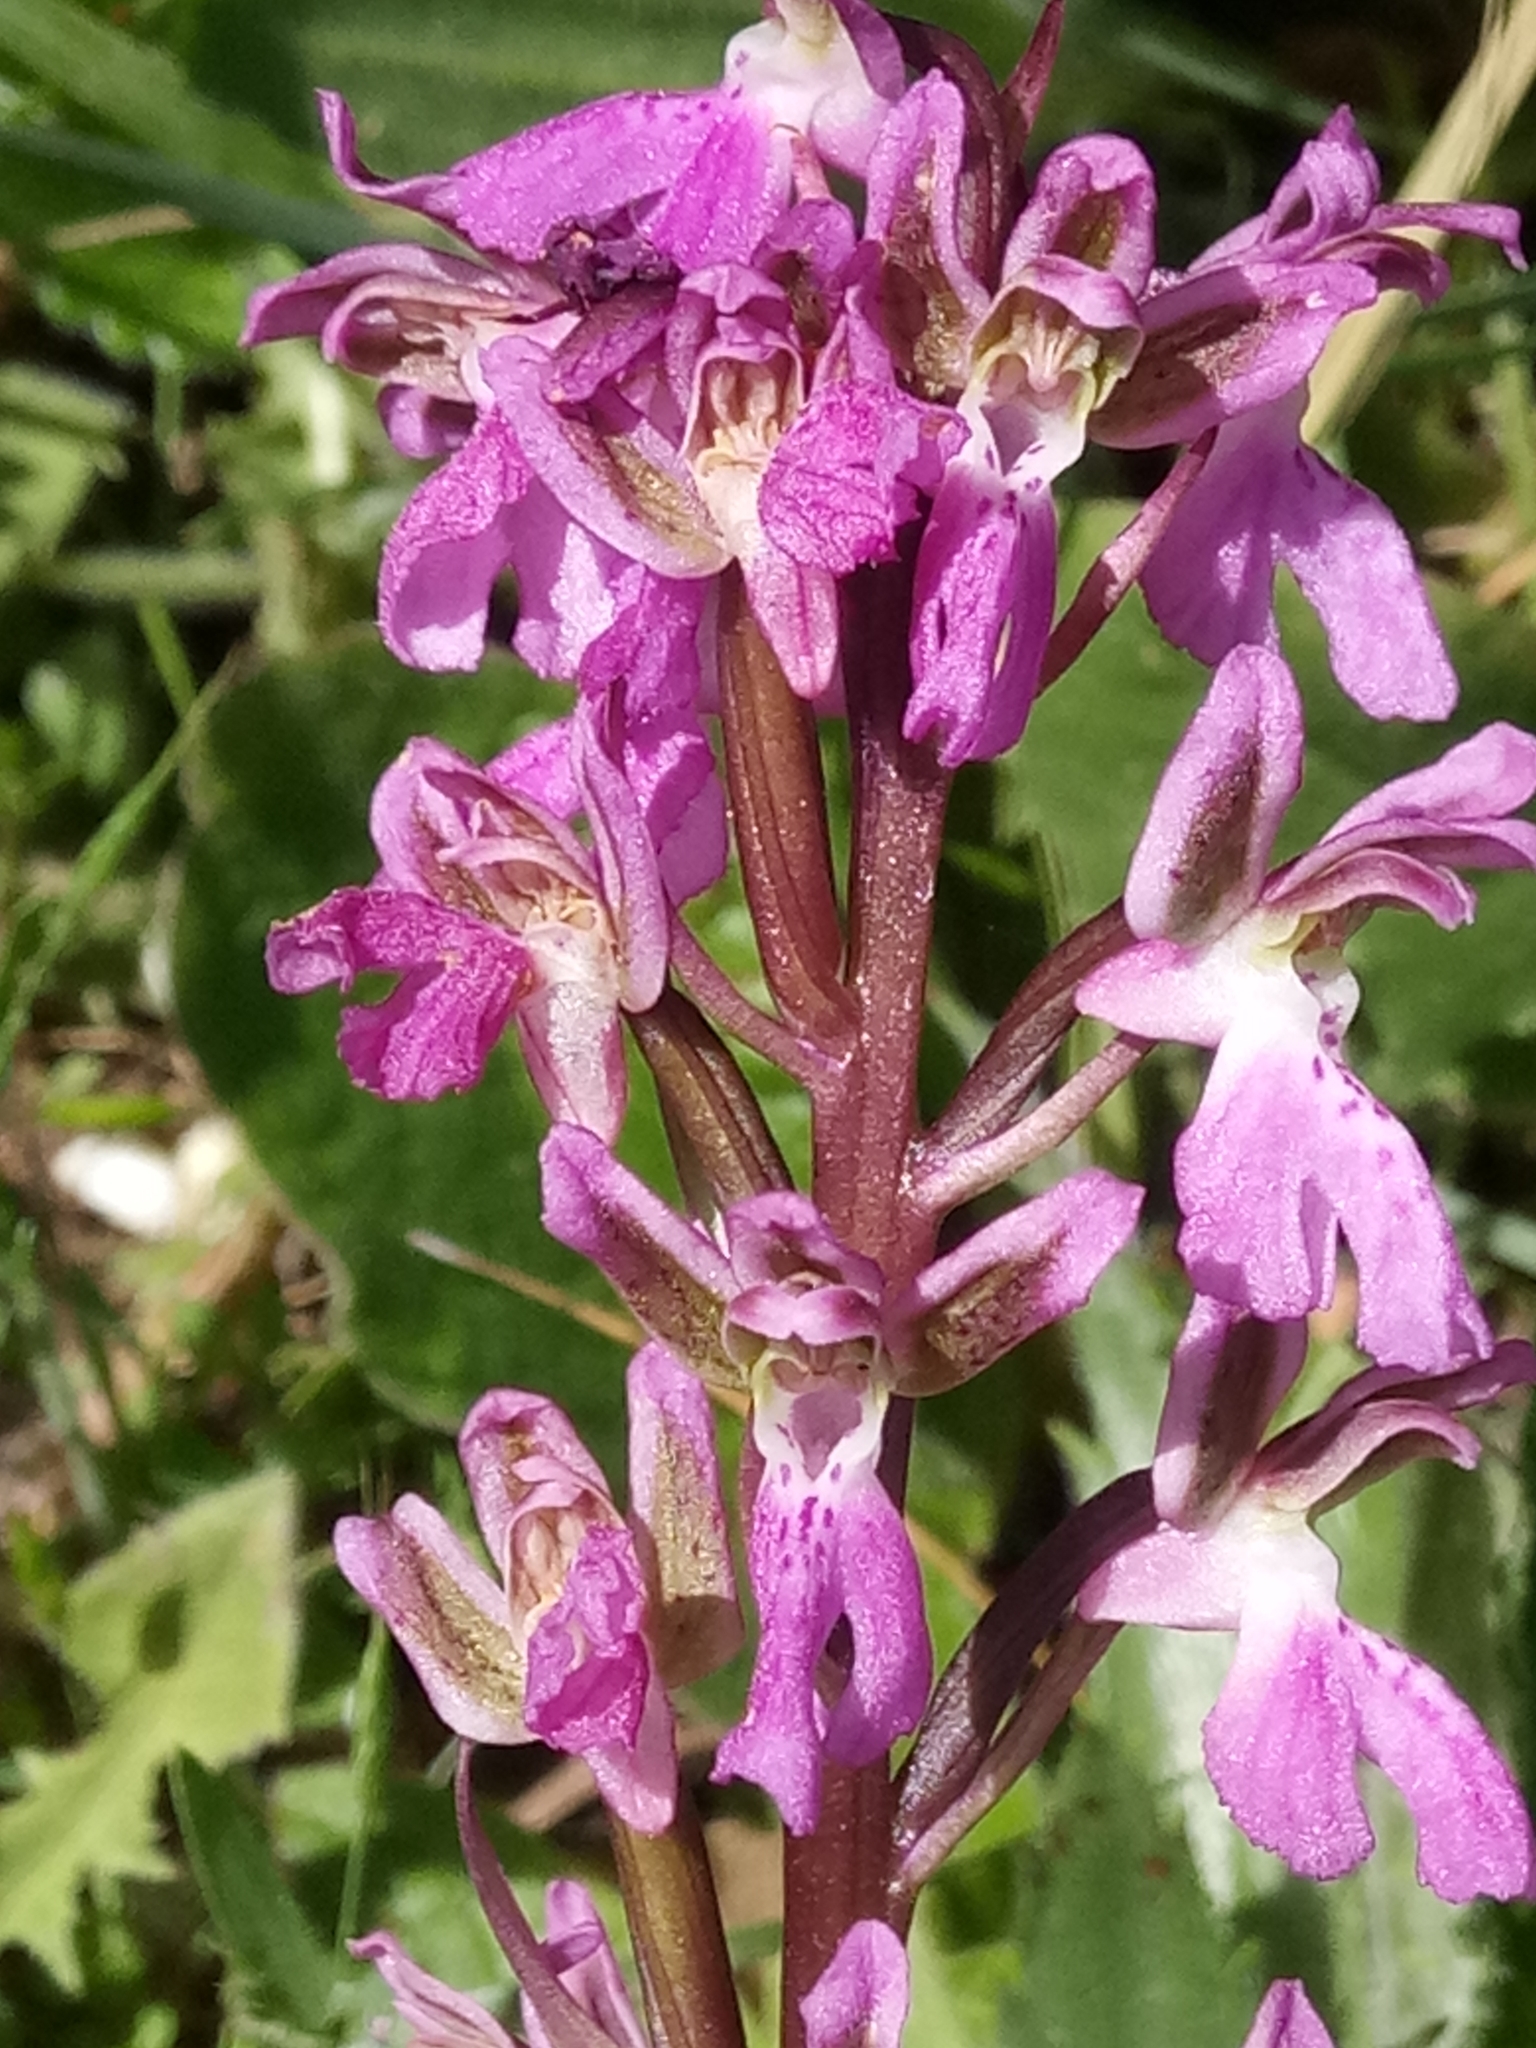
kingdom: Plantae
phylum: Tracheophyta
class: Liliopsida
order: Asparagales
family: Orchidaceae
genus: Orchis
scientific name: Orchis patens
